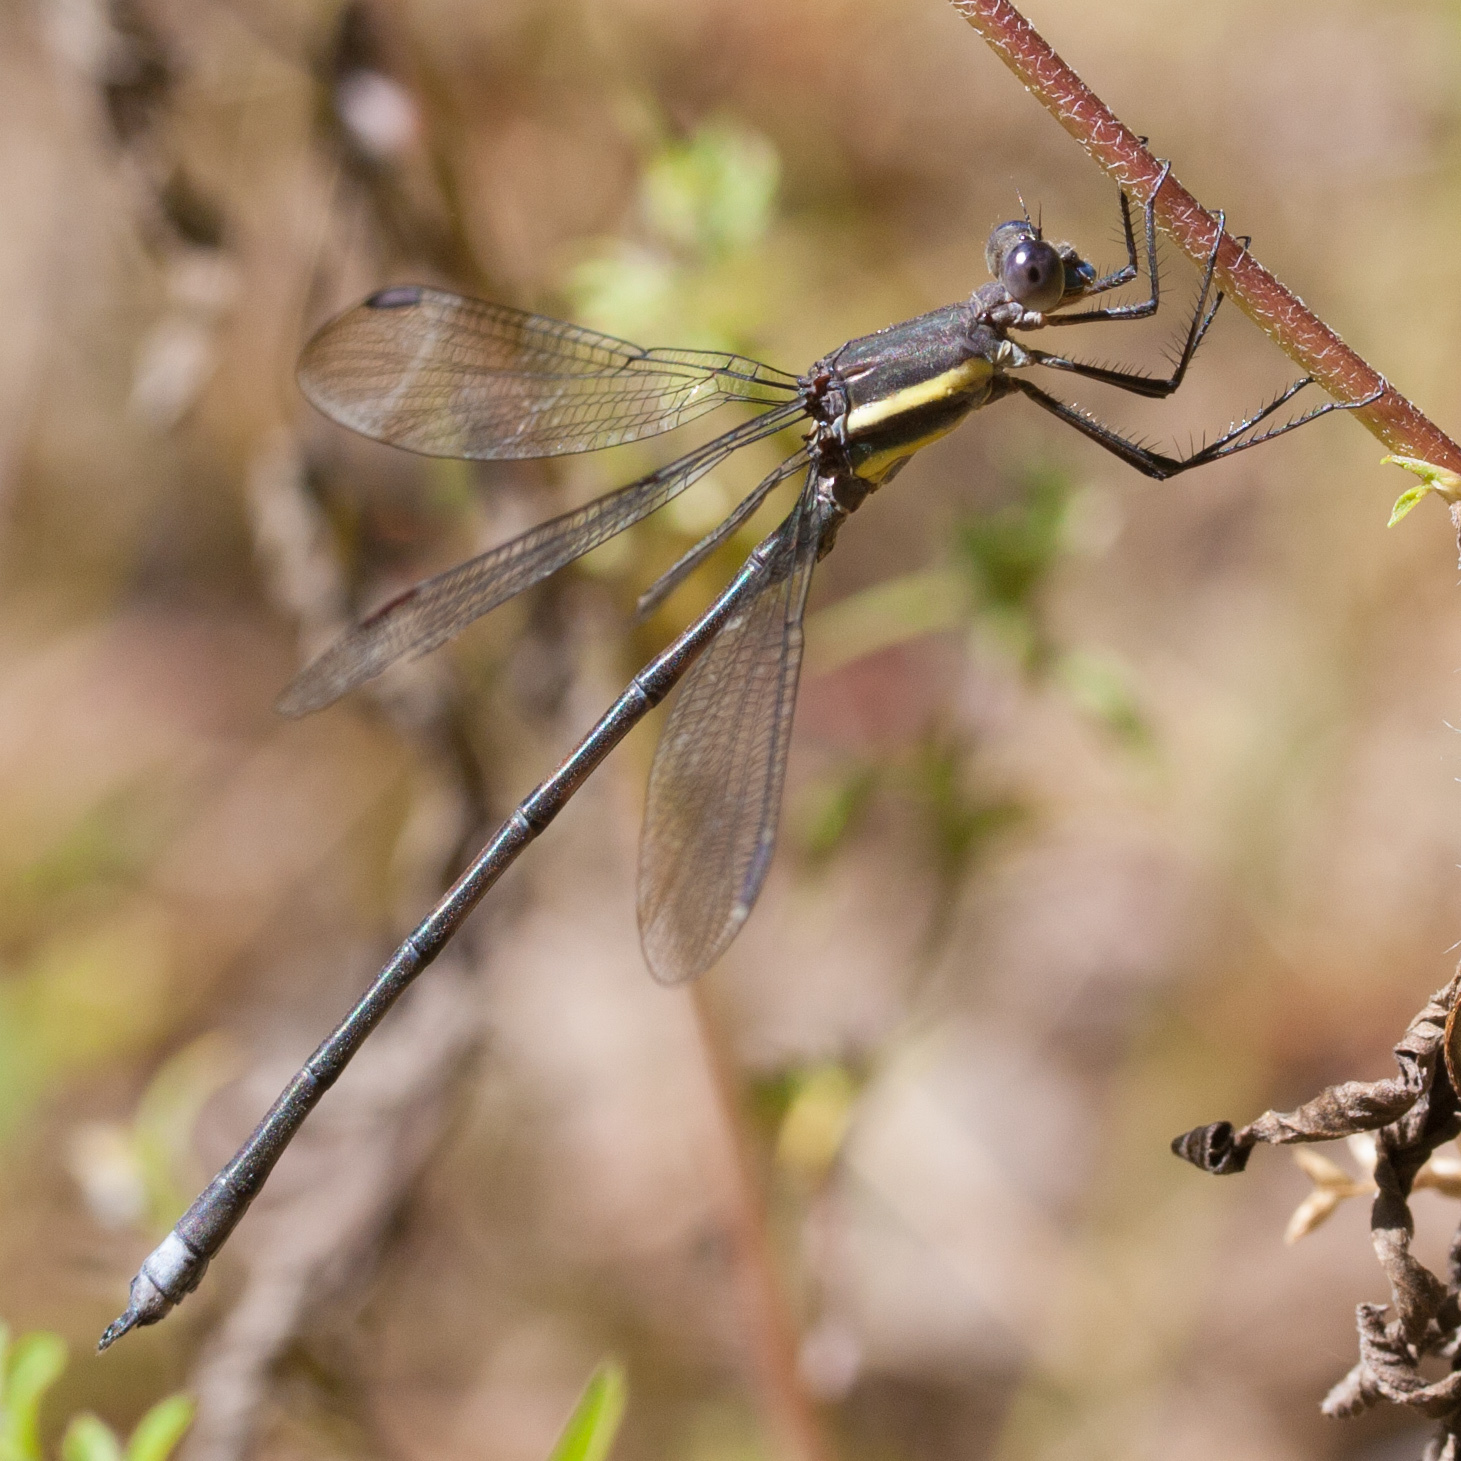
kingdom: Animalia
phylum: Arthropoda
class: Insecta
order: Odonata
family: Lestidae
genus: Archilestes
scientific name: Archilestes grandis
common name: Great spreadwing
